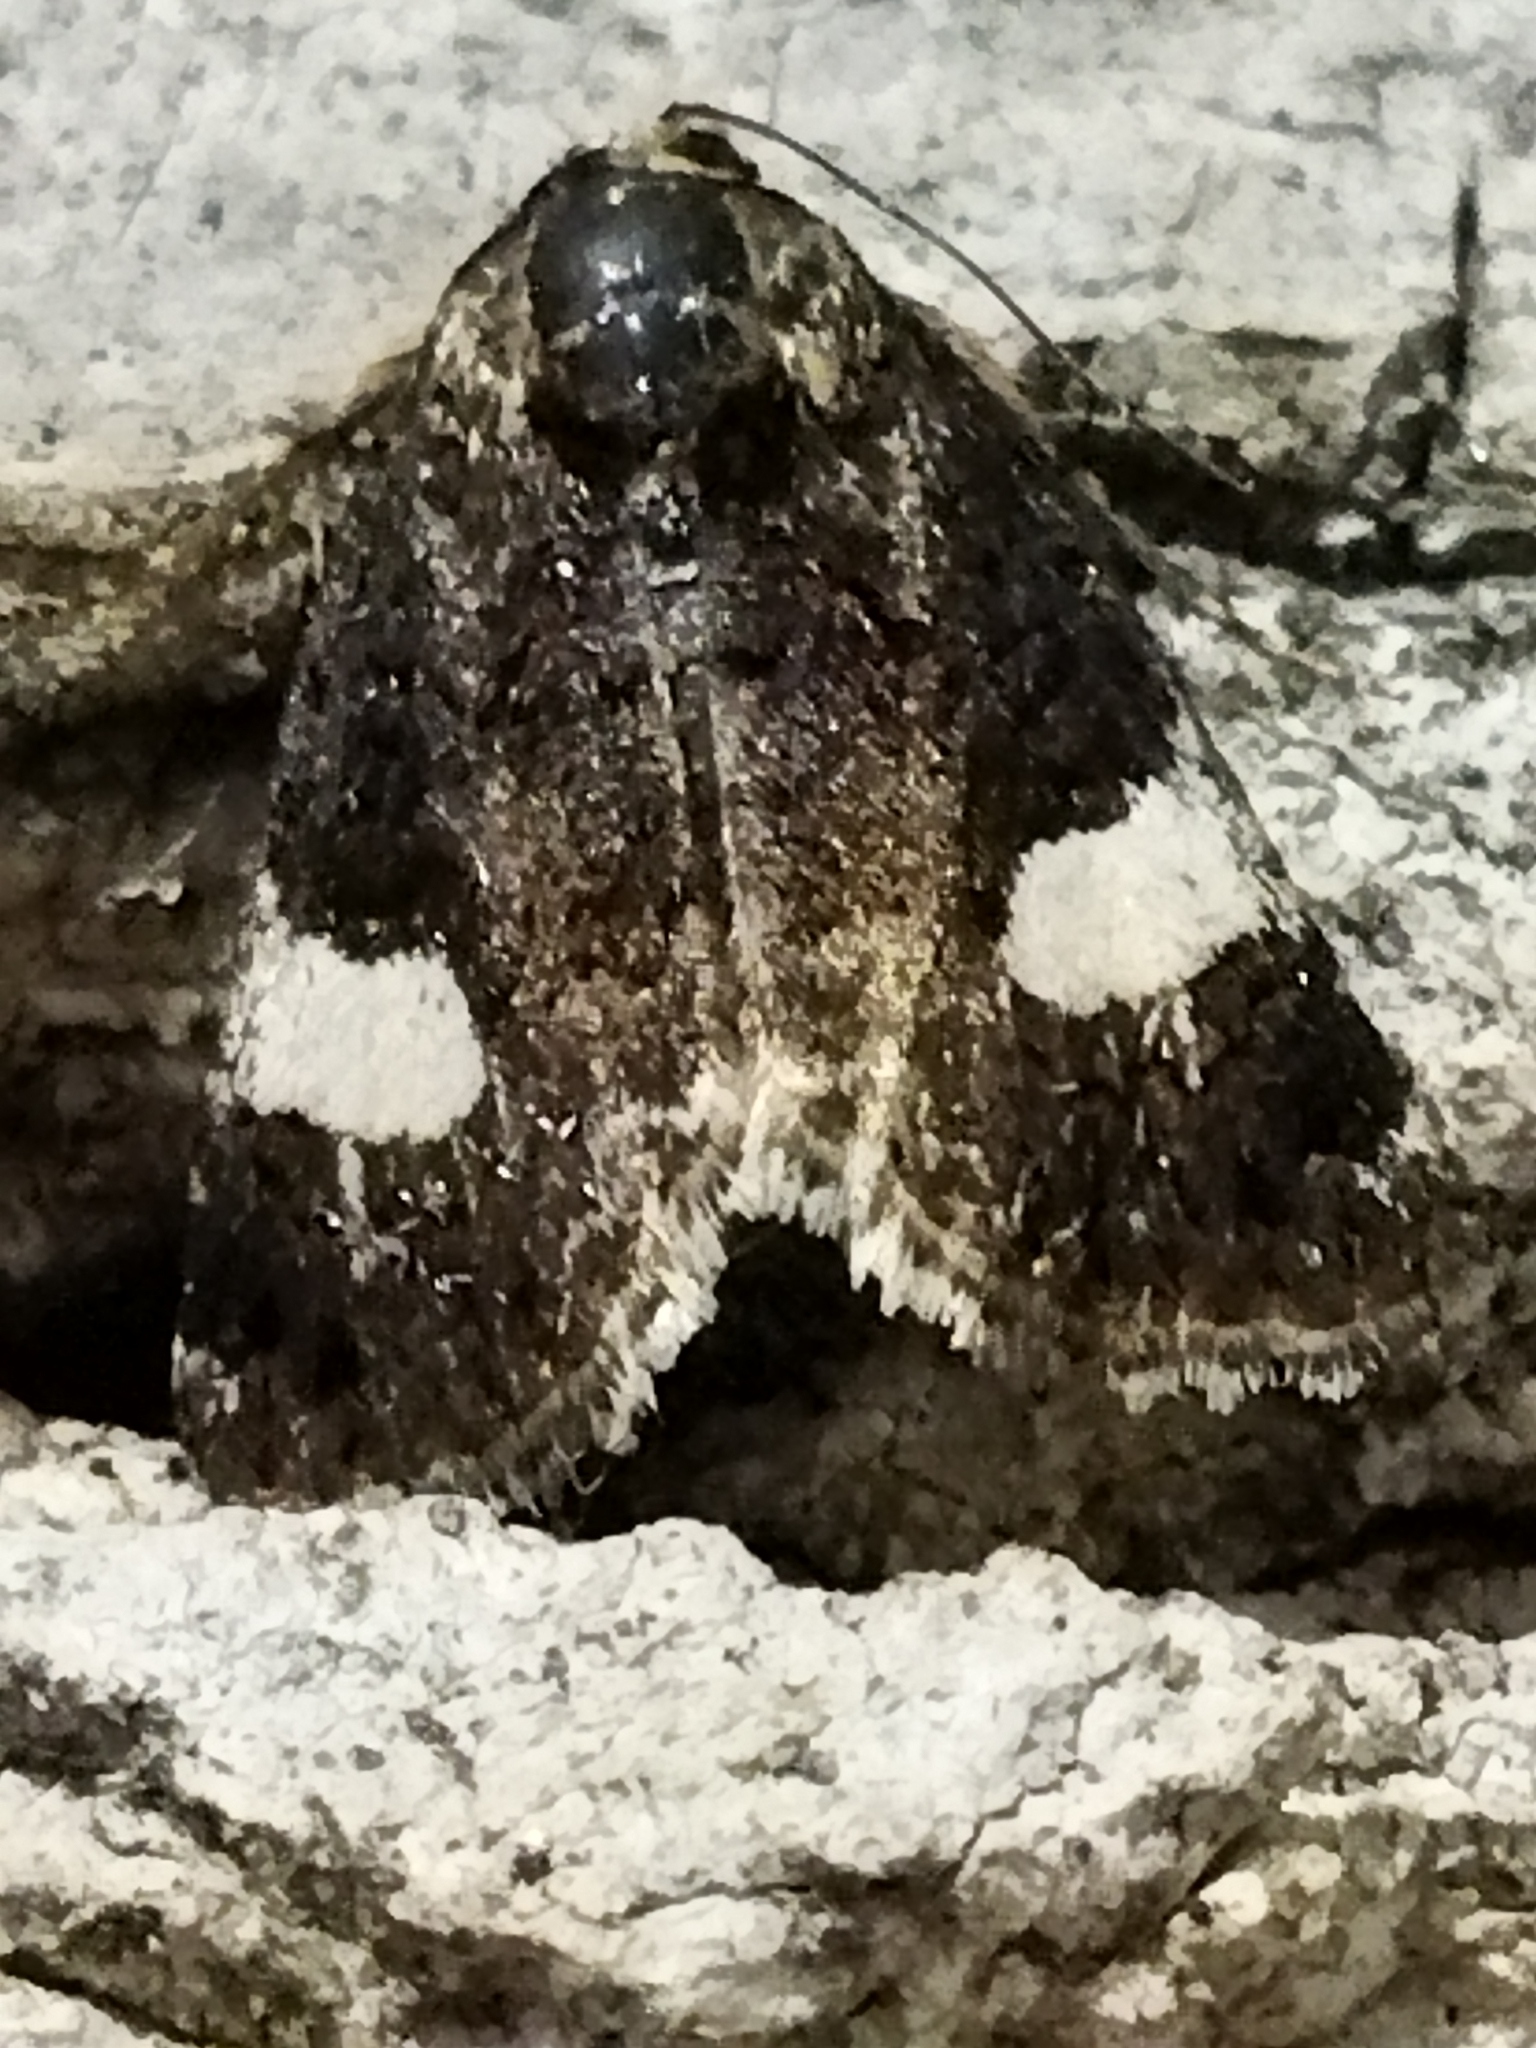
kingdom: Animalia
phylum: Arthropoda
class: Insecta
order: Lepidoptera
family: Erebidae
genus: Tyta
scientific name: Tyta luctuosa
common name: Four-spotted
